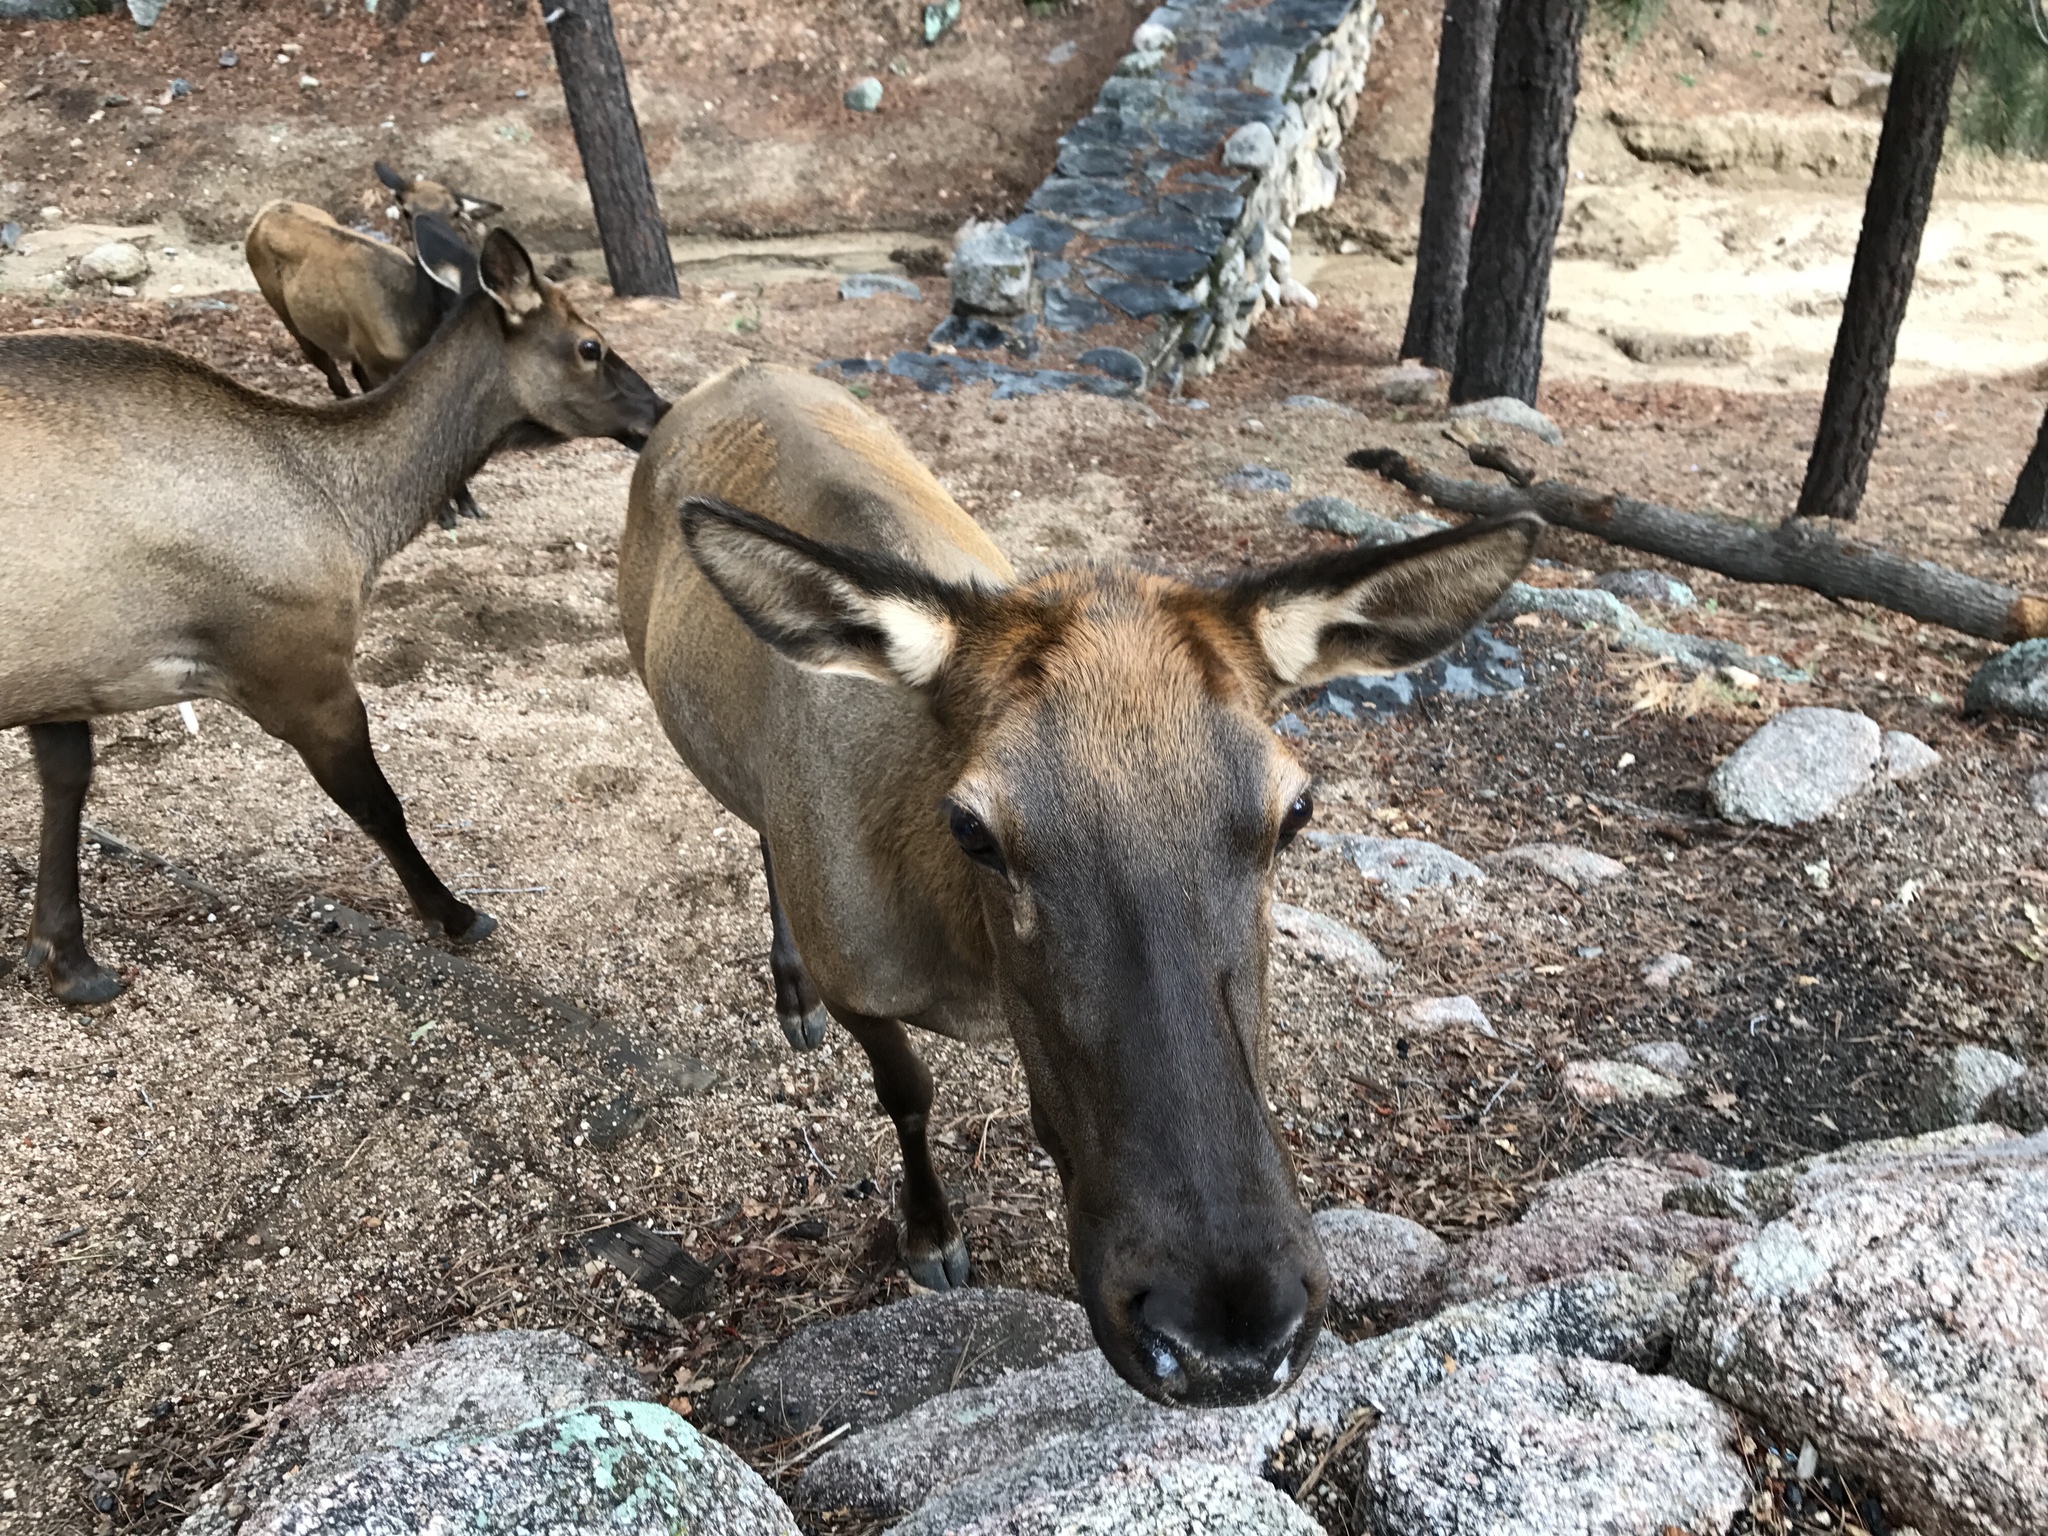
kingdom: Animalia
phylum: Chordata
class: Mammalia
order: Artiodactyla
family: Cervidae
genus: Cervus
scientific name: Cervus elaphus
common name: Red deer
